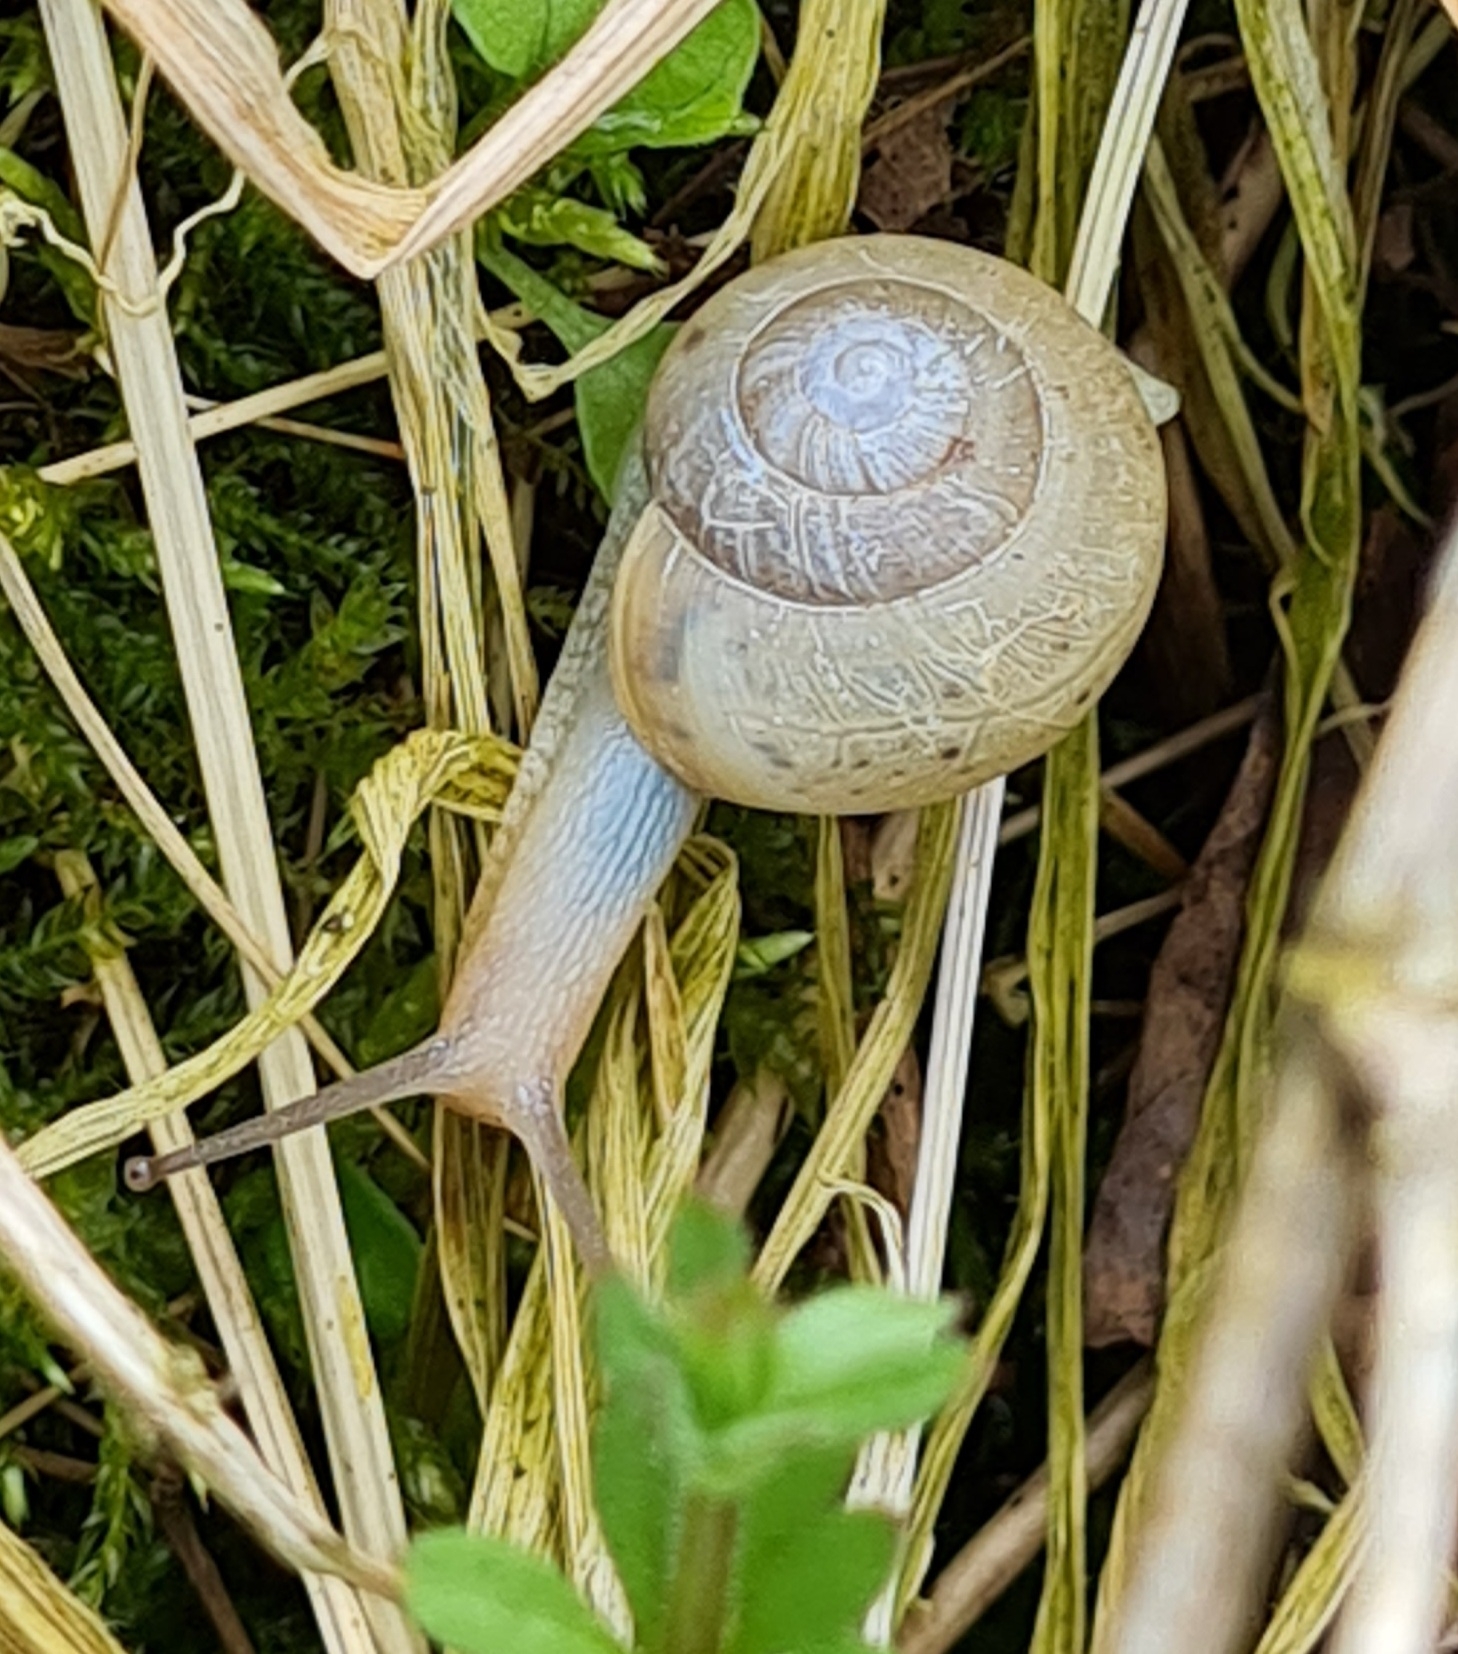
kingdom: Animalia
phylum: Mollusca
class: Gastropoda
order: Stylommatophora
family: Camaenidae
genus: Fruticicola
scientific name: Fruticicola fruticum
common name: Bush snail
